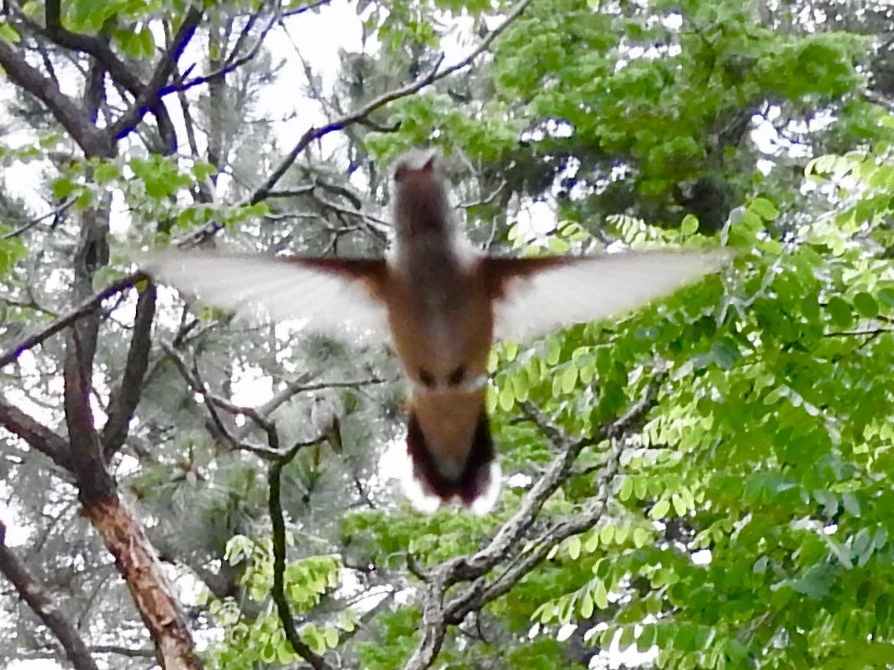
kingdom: Animalia
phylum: Chordata
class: Aves
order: Apodiformes
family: Trochilidae
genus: Selasphorus
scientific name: Selasphorus rufus
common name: Rufous hummingbird
